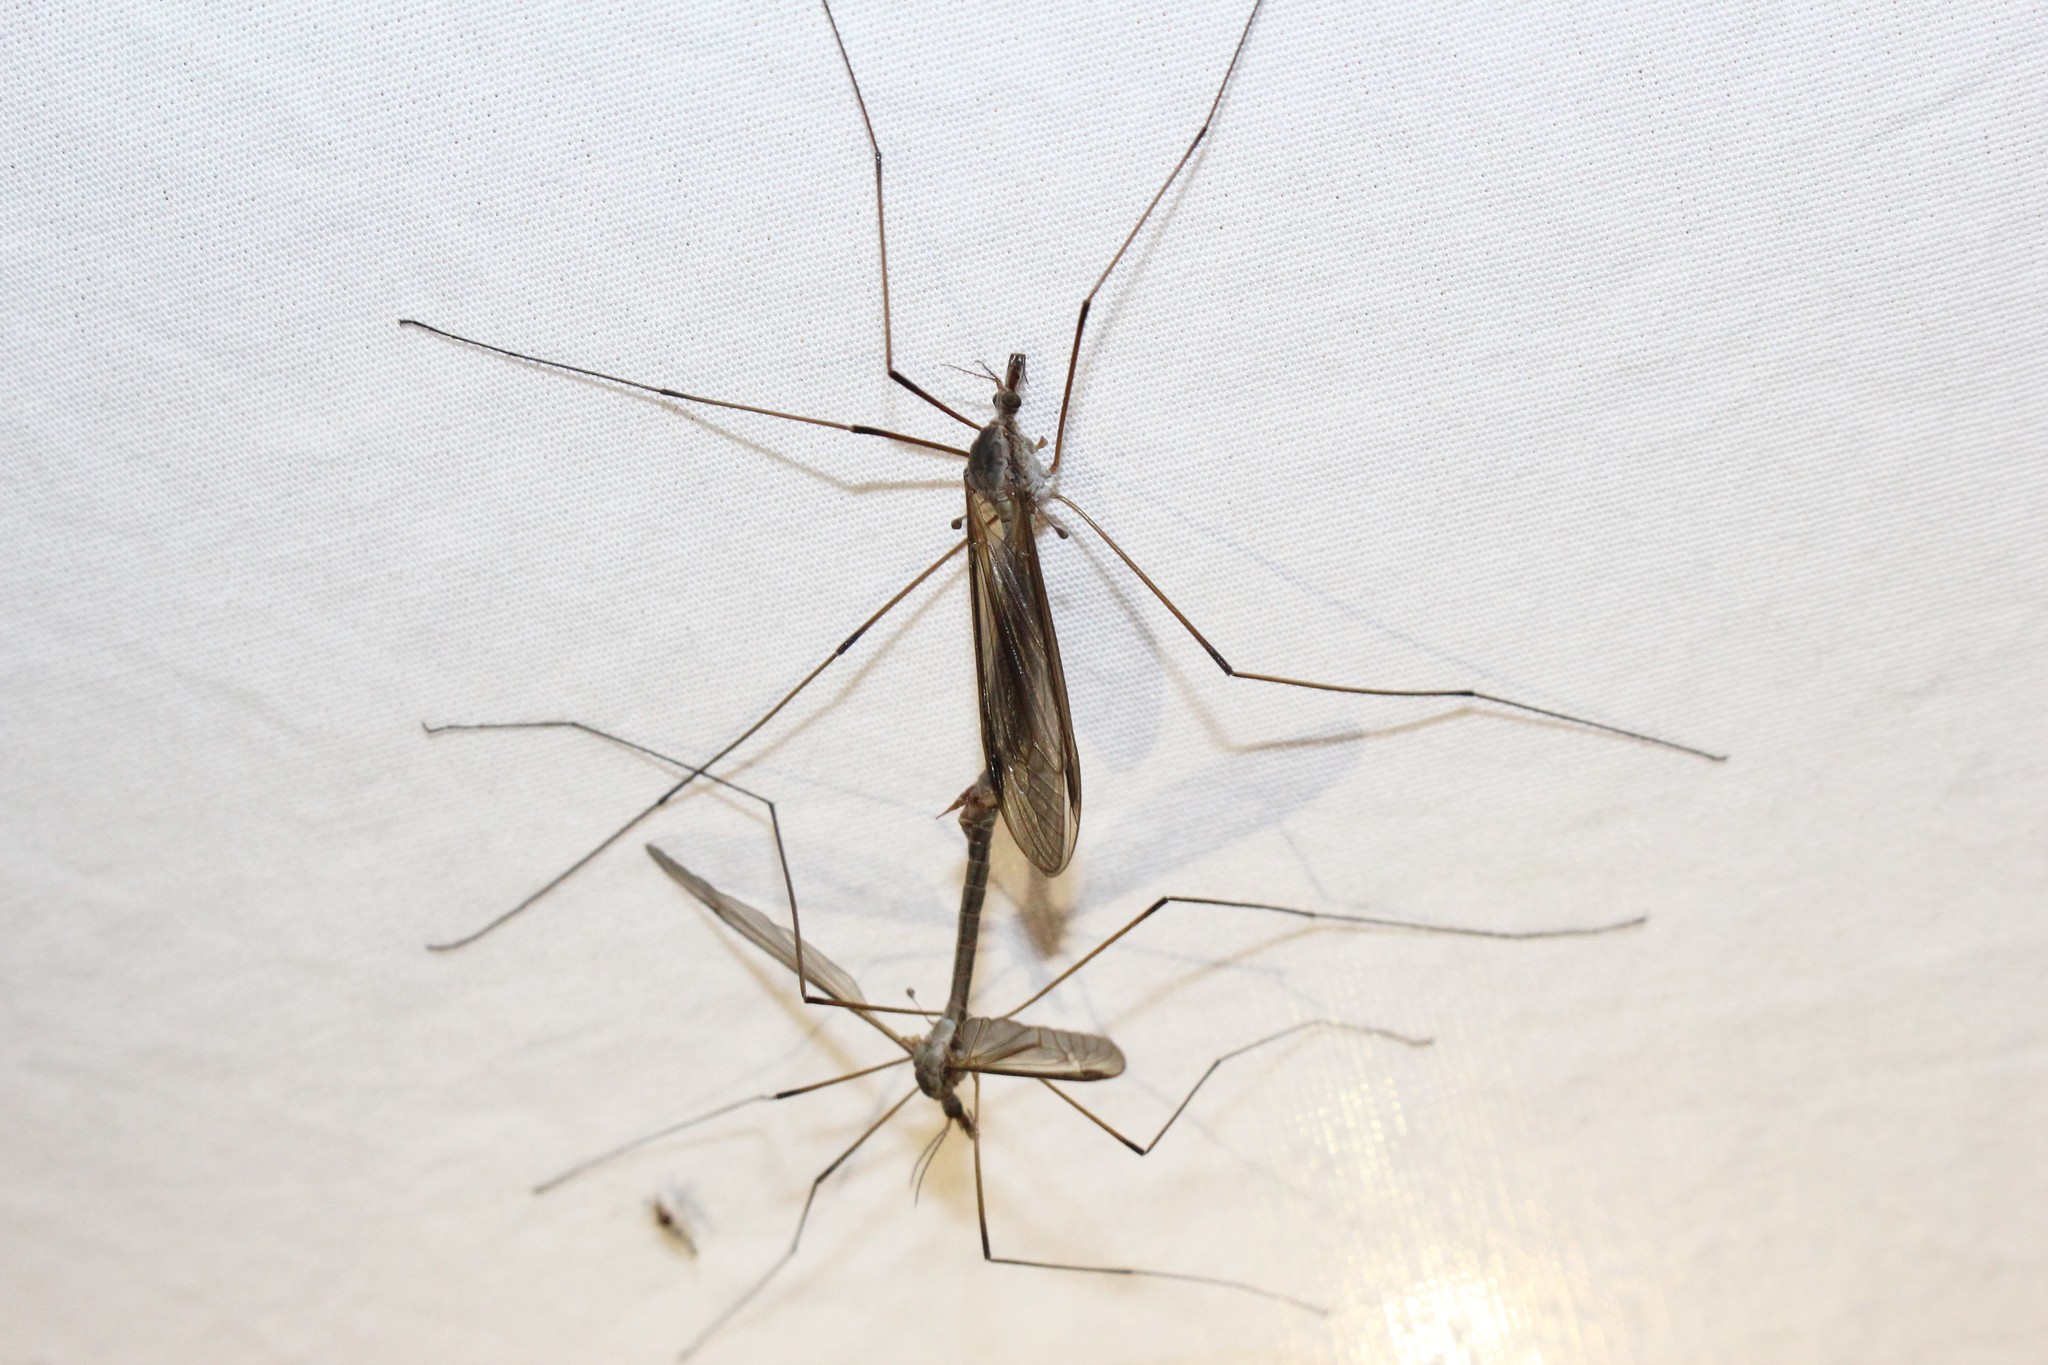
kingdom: Animalia
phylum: Arthropoda
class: Insecta
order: Diptera
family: Tipulidae
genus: Tipula
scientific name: Tipula oleracea
